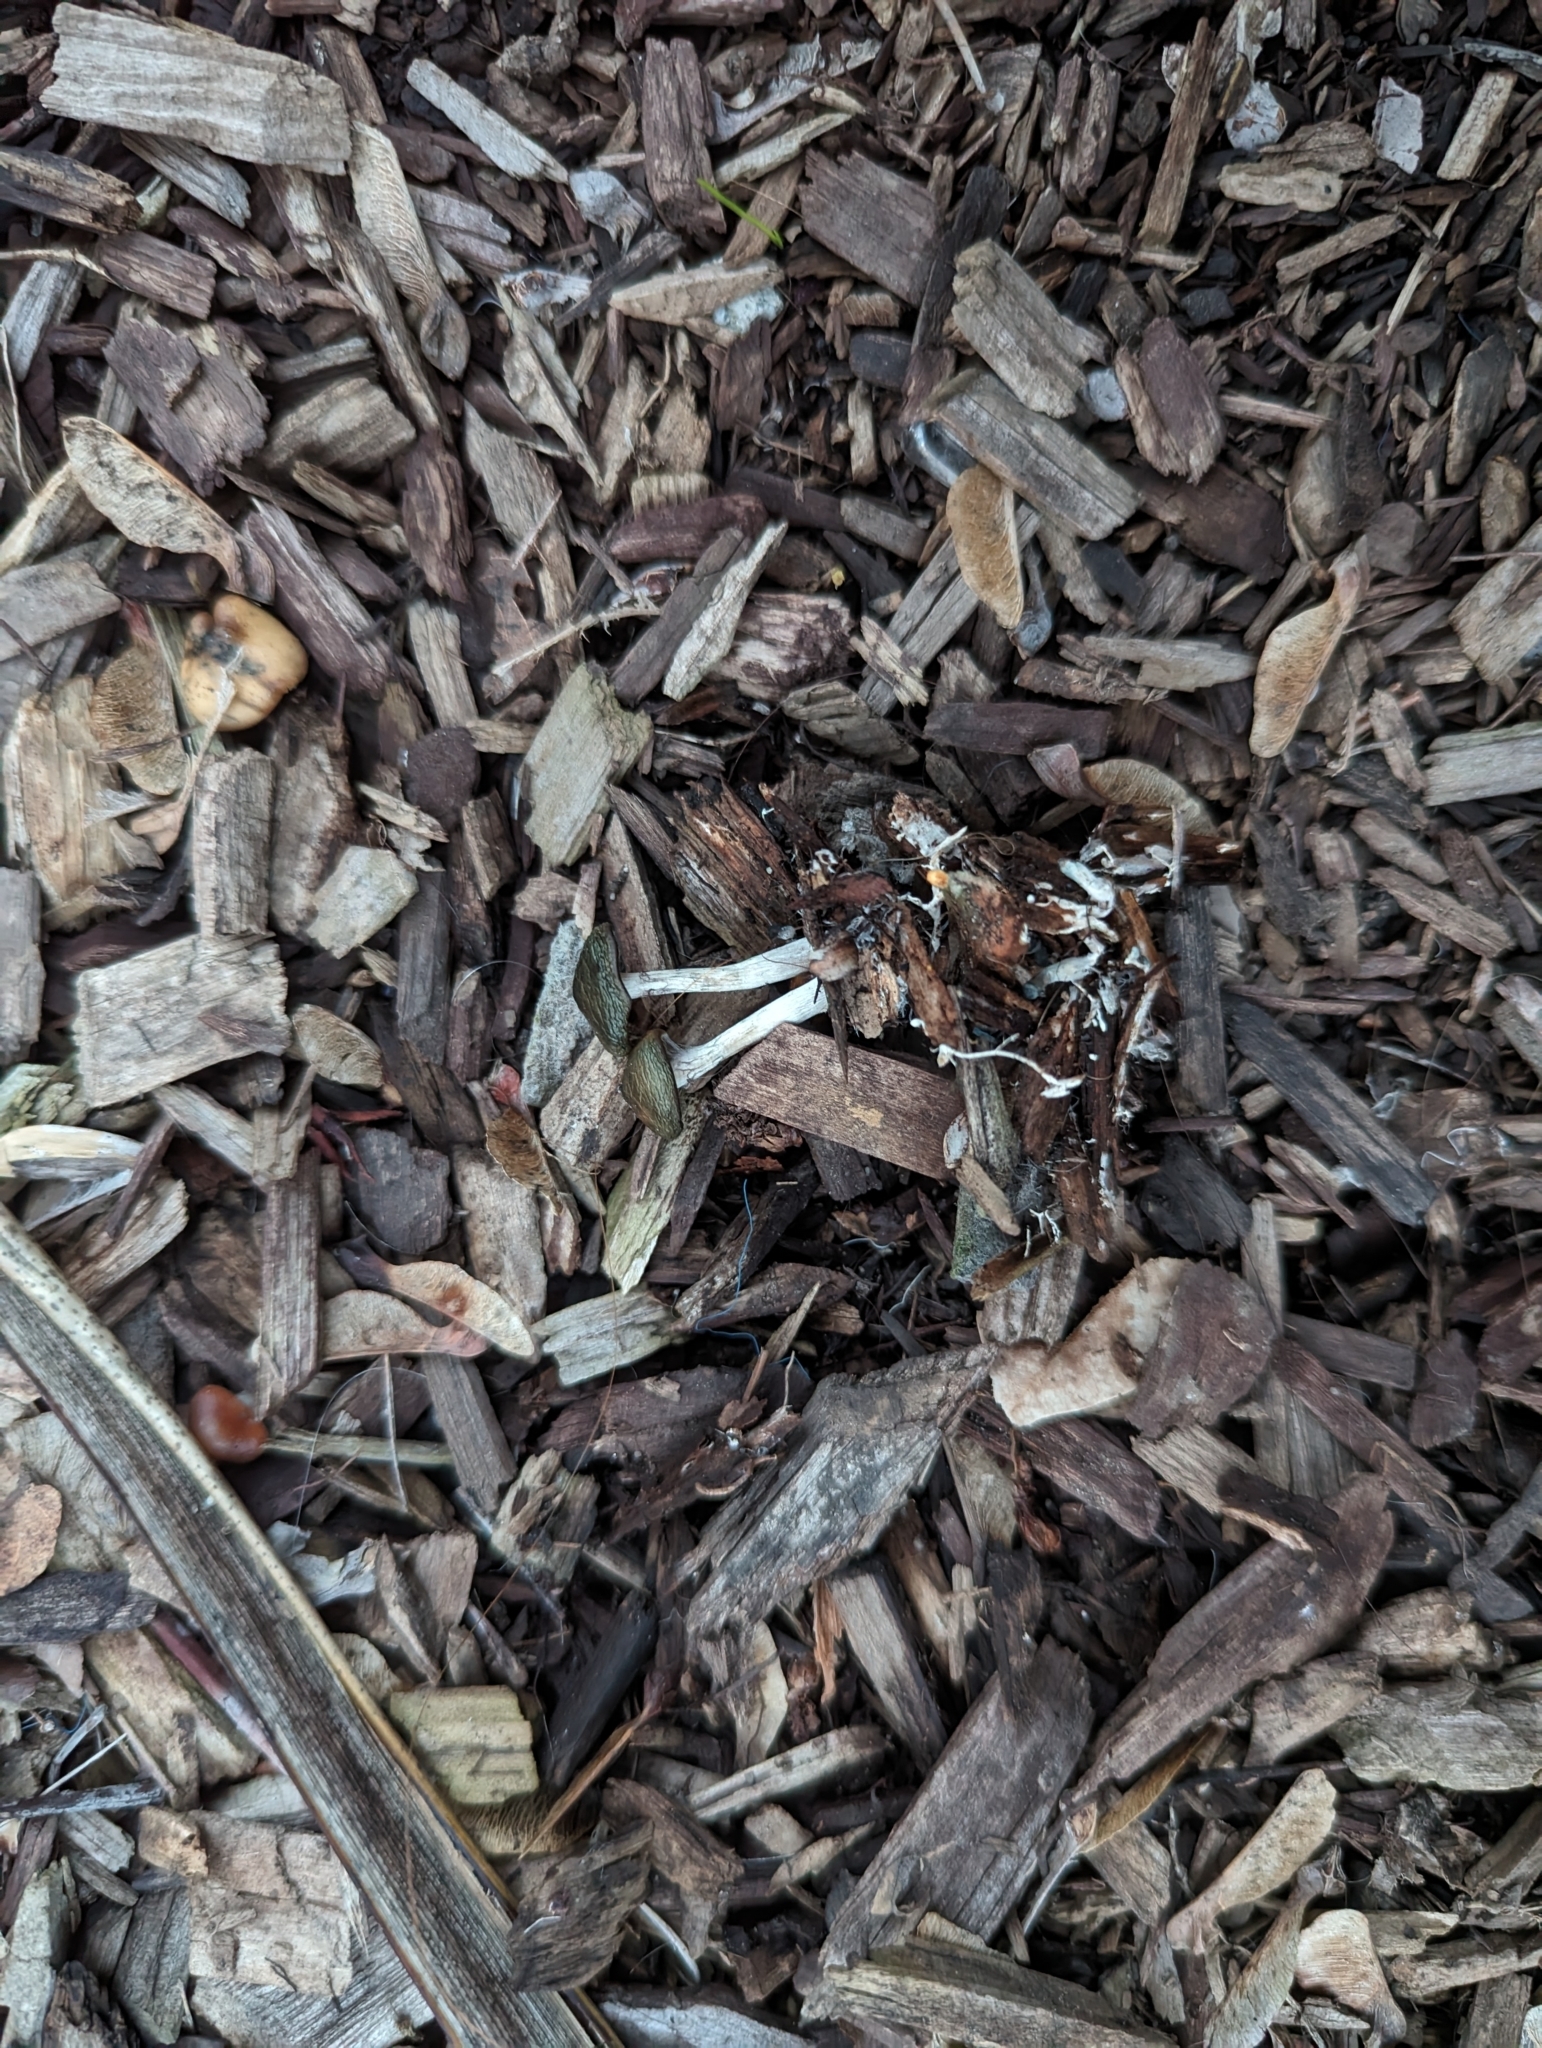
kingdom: Fungi
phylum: Basidiomycota
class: Agaricomycetes
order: Agaricales
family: Hymenogastraceae
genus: Psilocybe
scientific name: Psilocybe cyanescens
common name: Blueleg brownie
